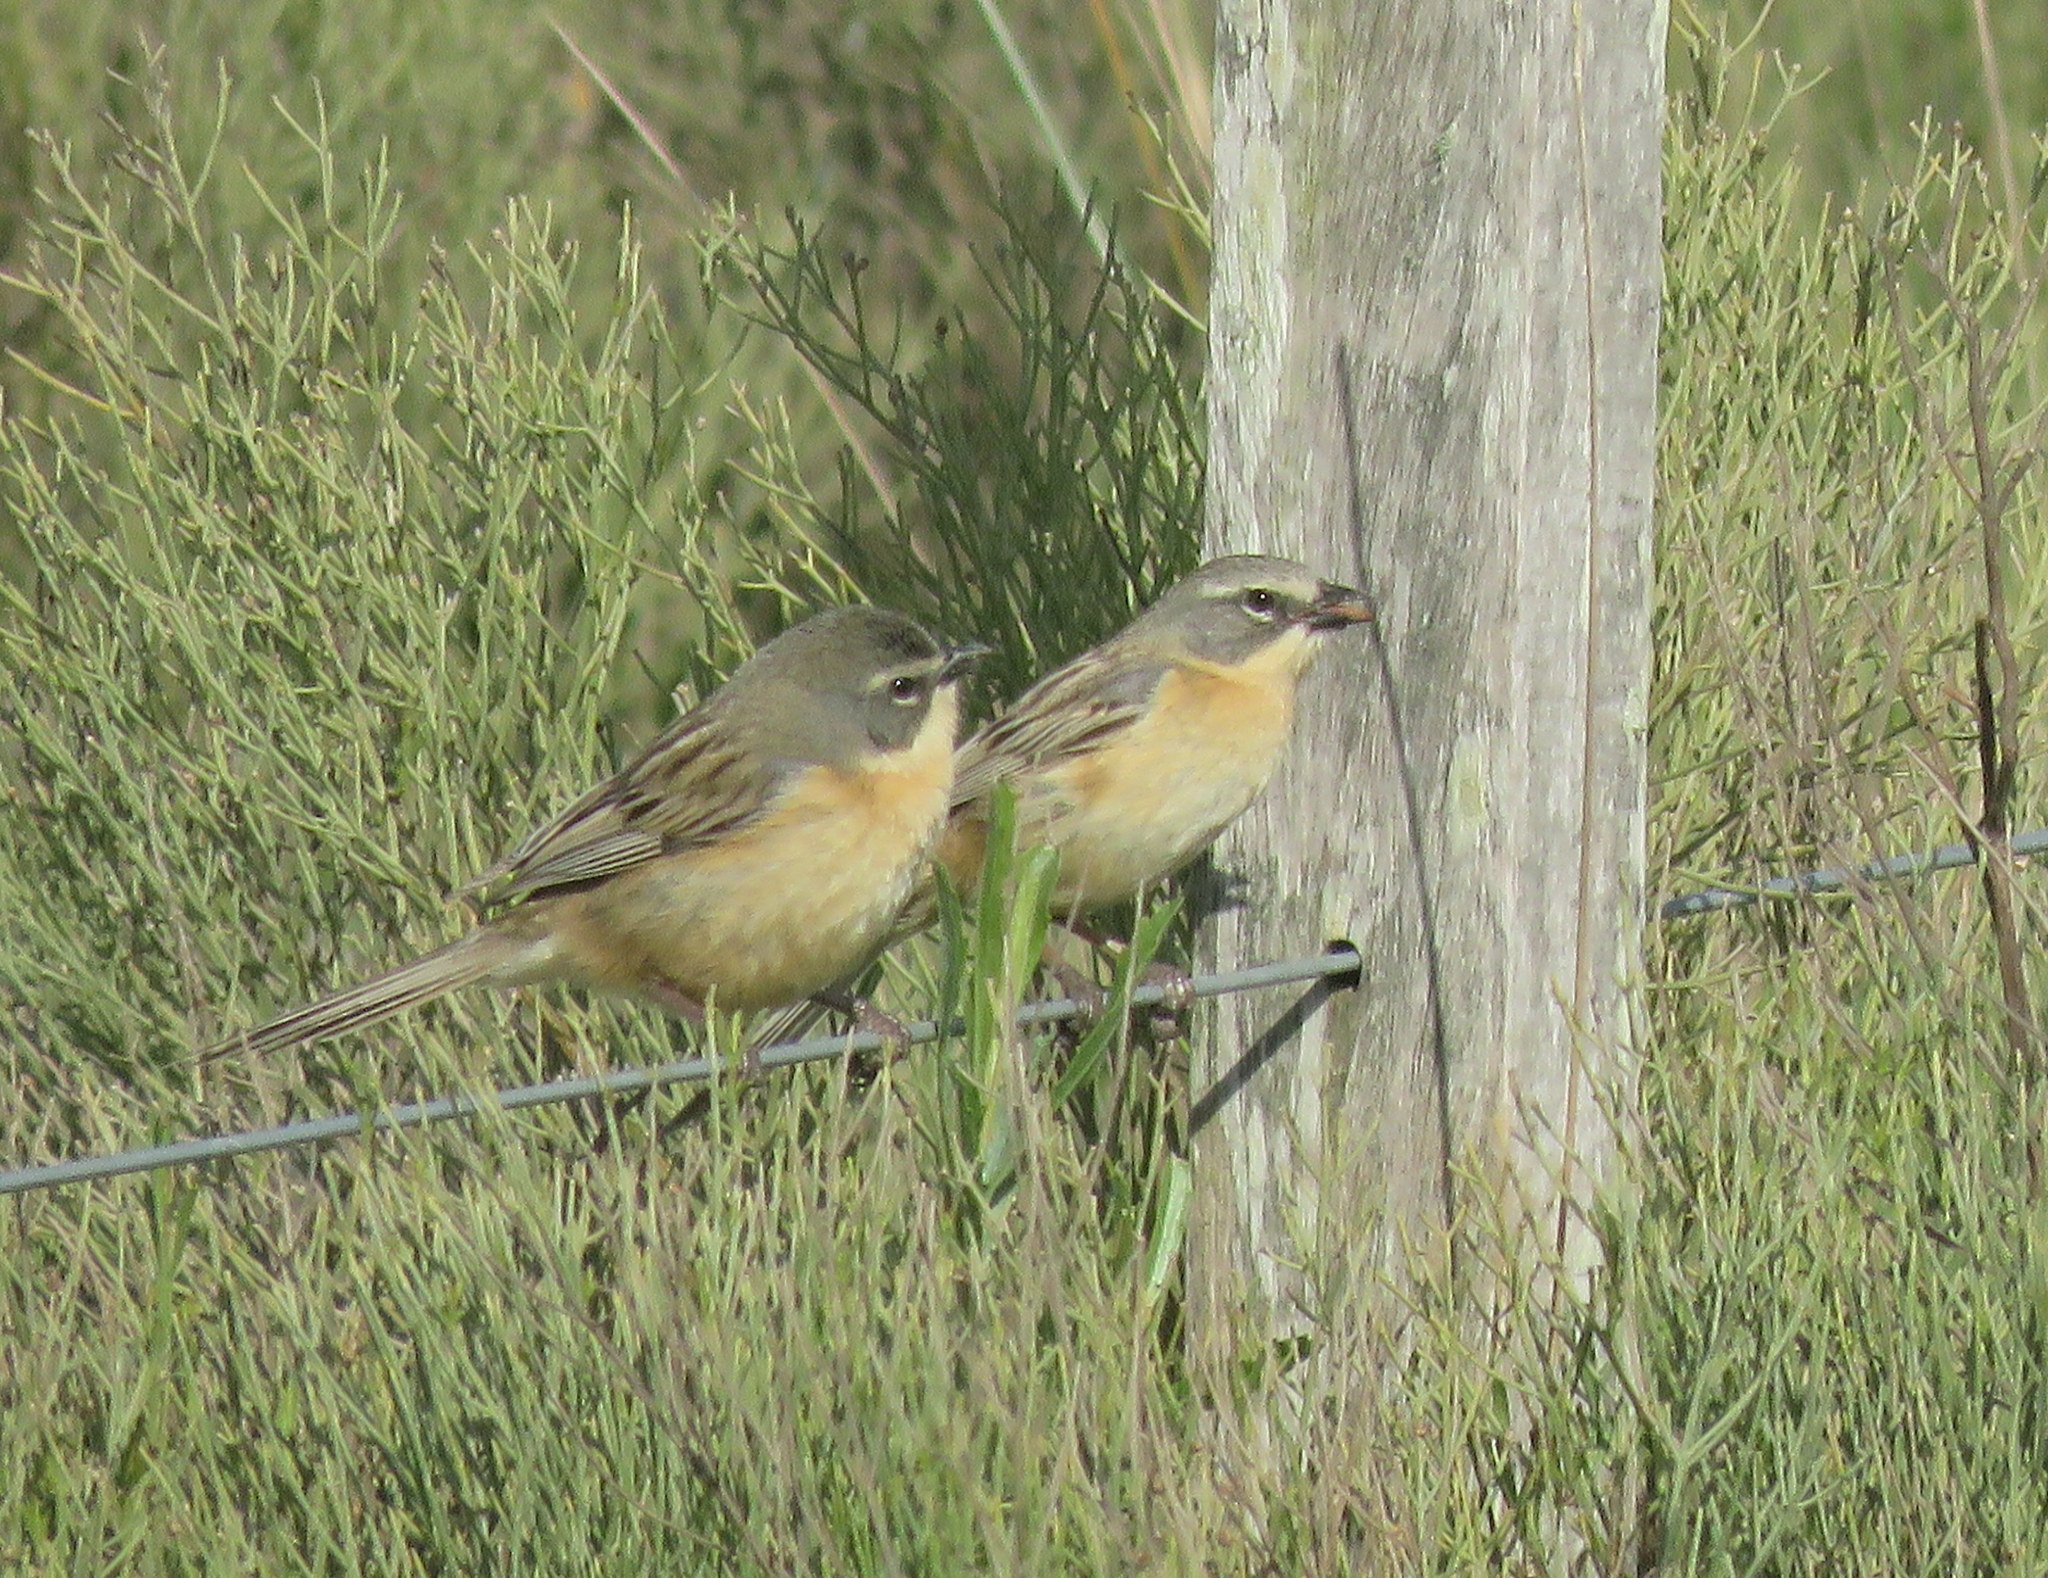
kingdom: Animalia
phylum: Chordata
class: Aves
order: Passeriformes
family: Thraupidae
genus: Donacospiza
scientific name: Donacospiza albifrons
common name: Long-tailed reed finch
